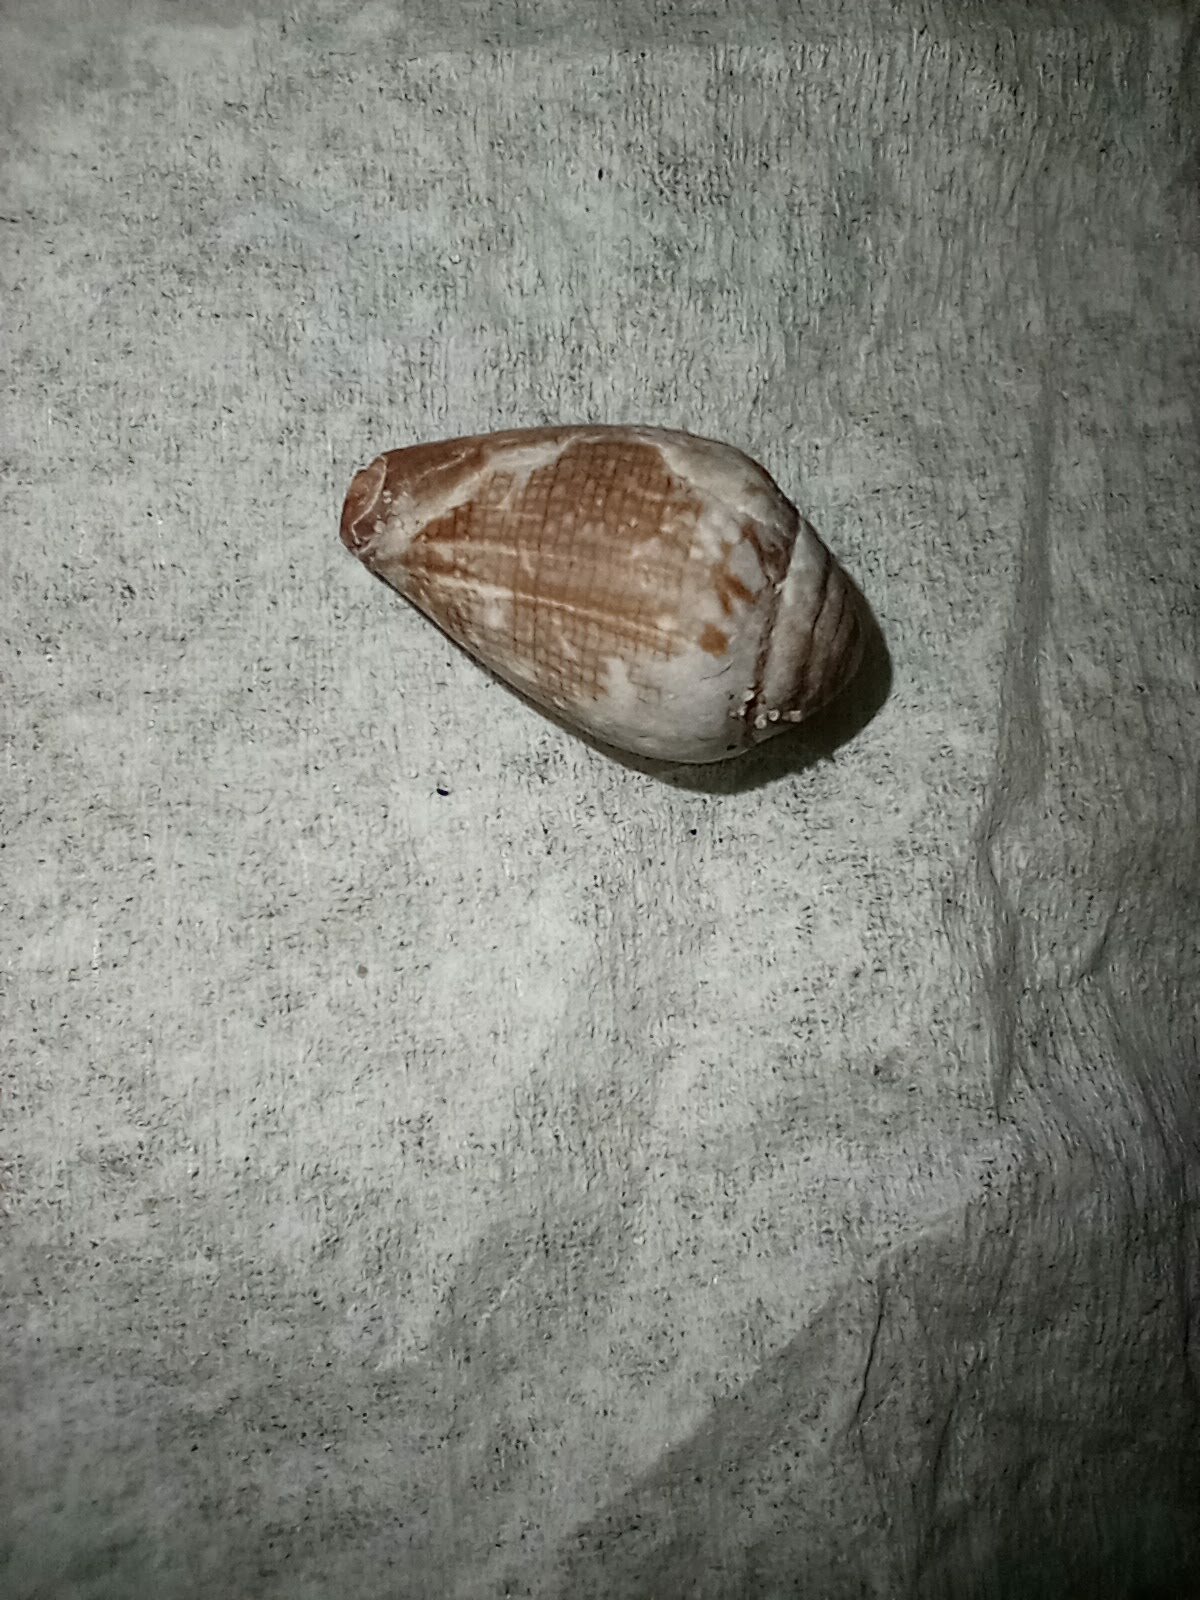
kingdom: Animalia
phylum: Mollusca
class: Gastropoda
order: Neogastropoda
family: Conidae
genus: Californiconus
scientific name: Californiconus californicus
